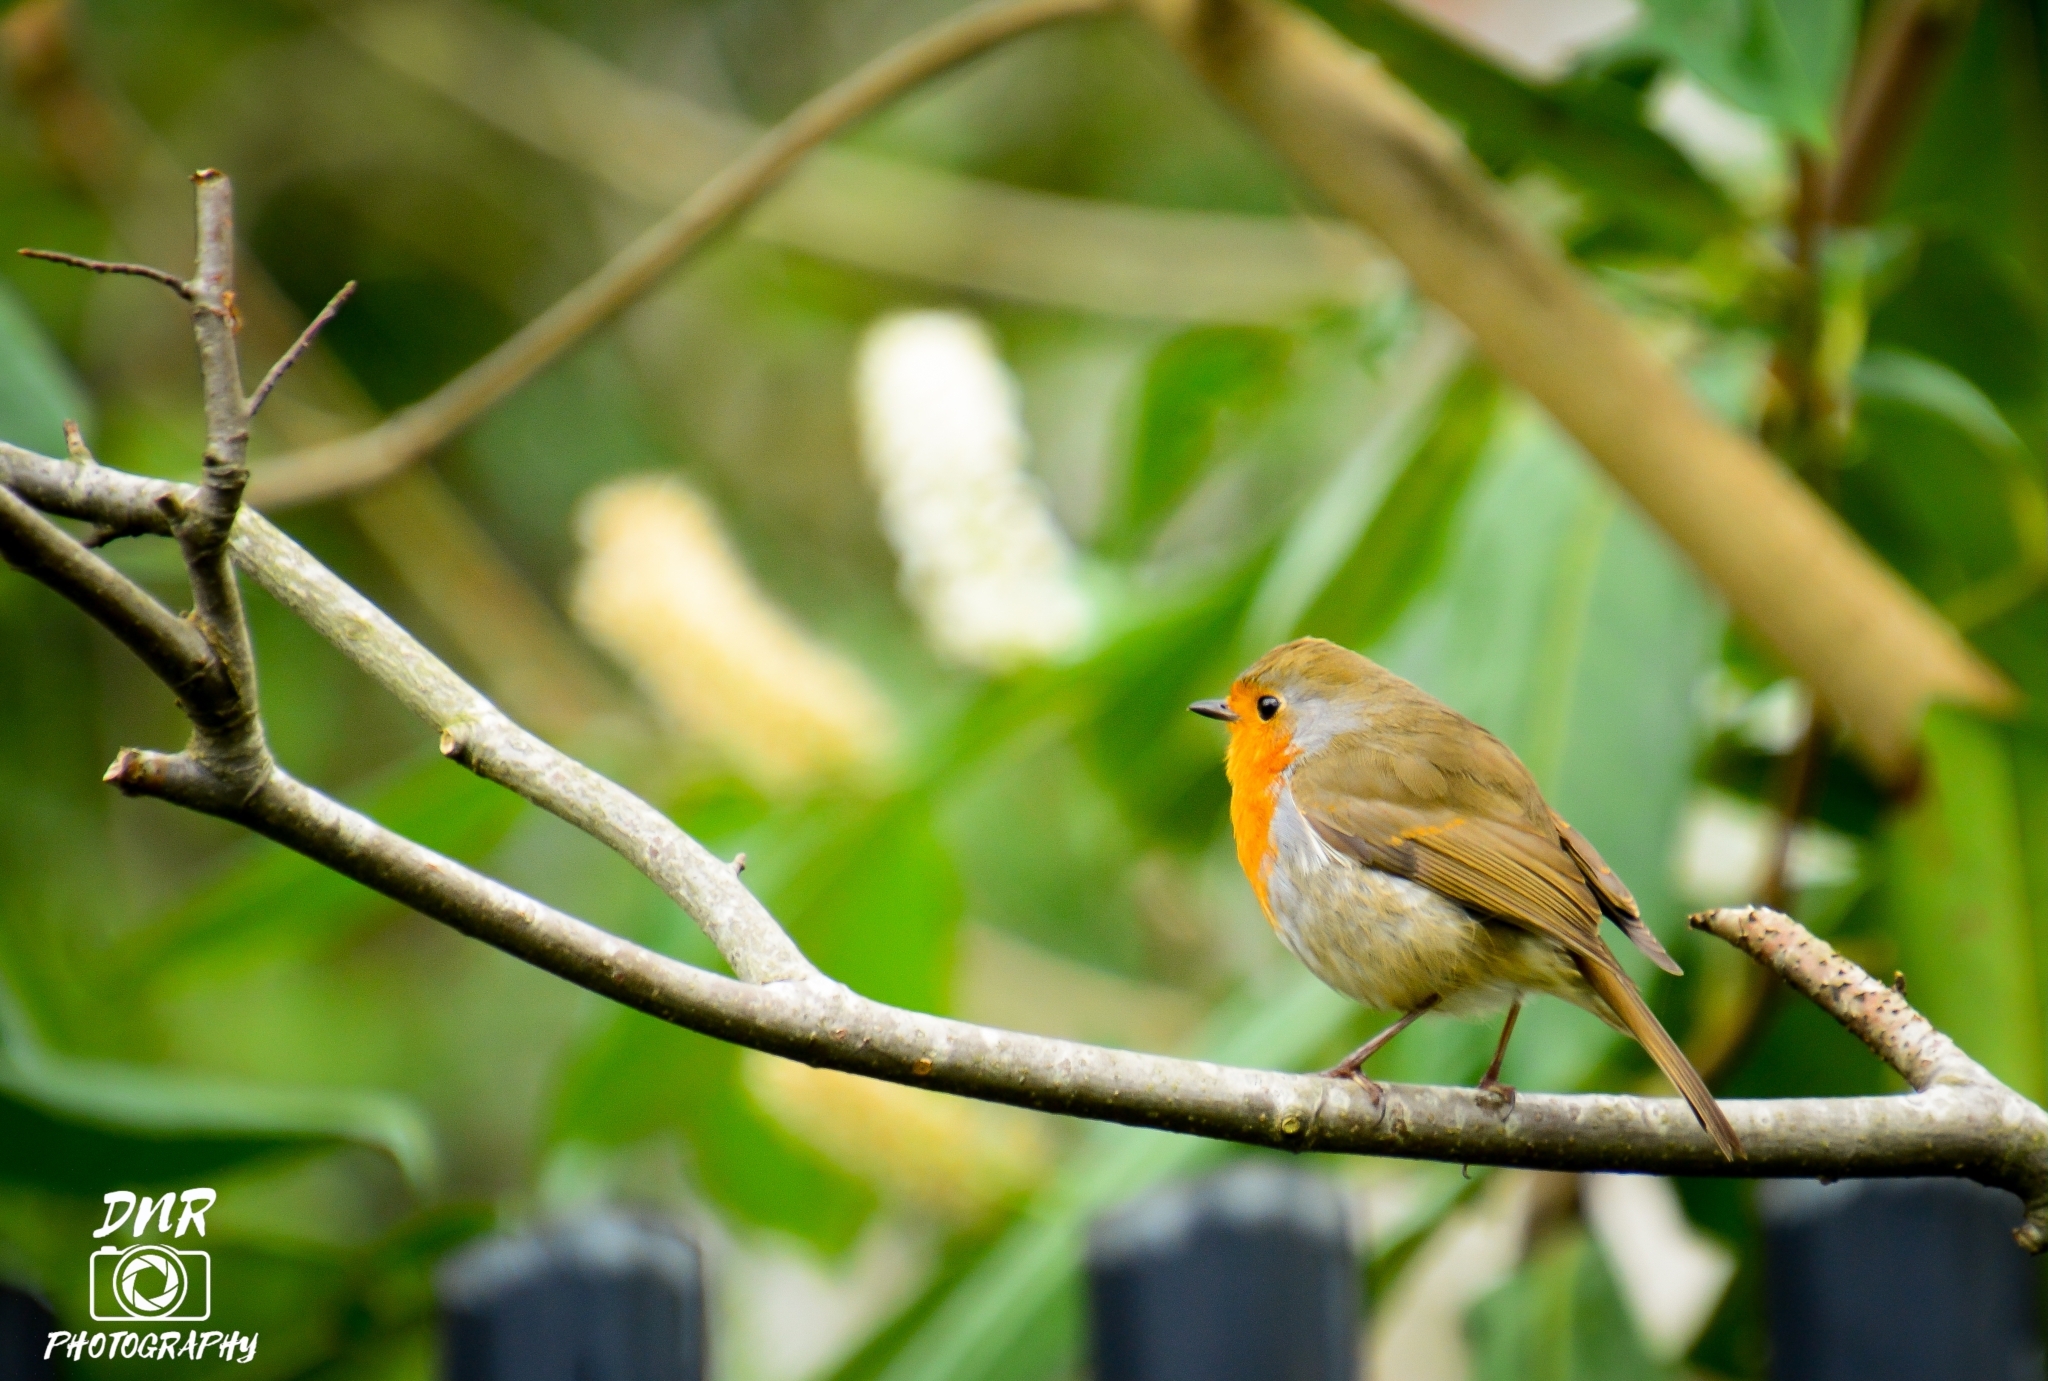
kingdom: Animalia
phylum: Chordata
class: Aves
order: Passeriformes
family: Muscicapidae
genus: Erithacus
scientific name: Erithacus rubecula
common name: European robin
